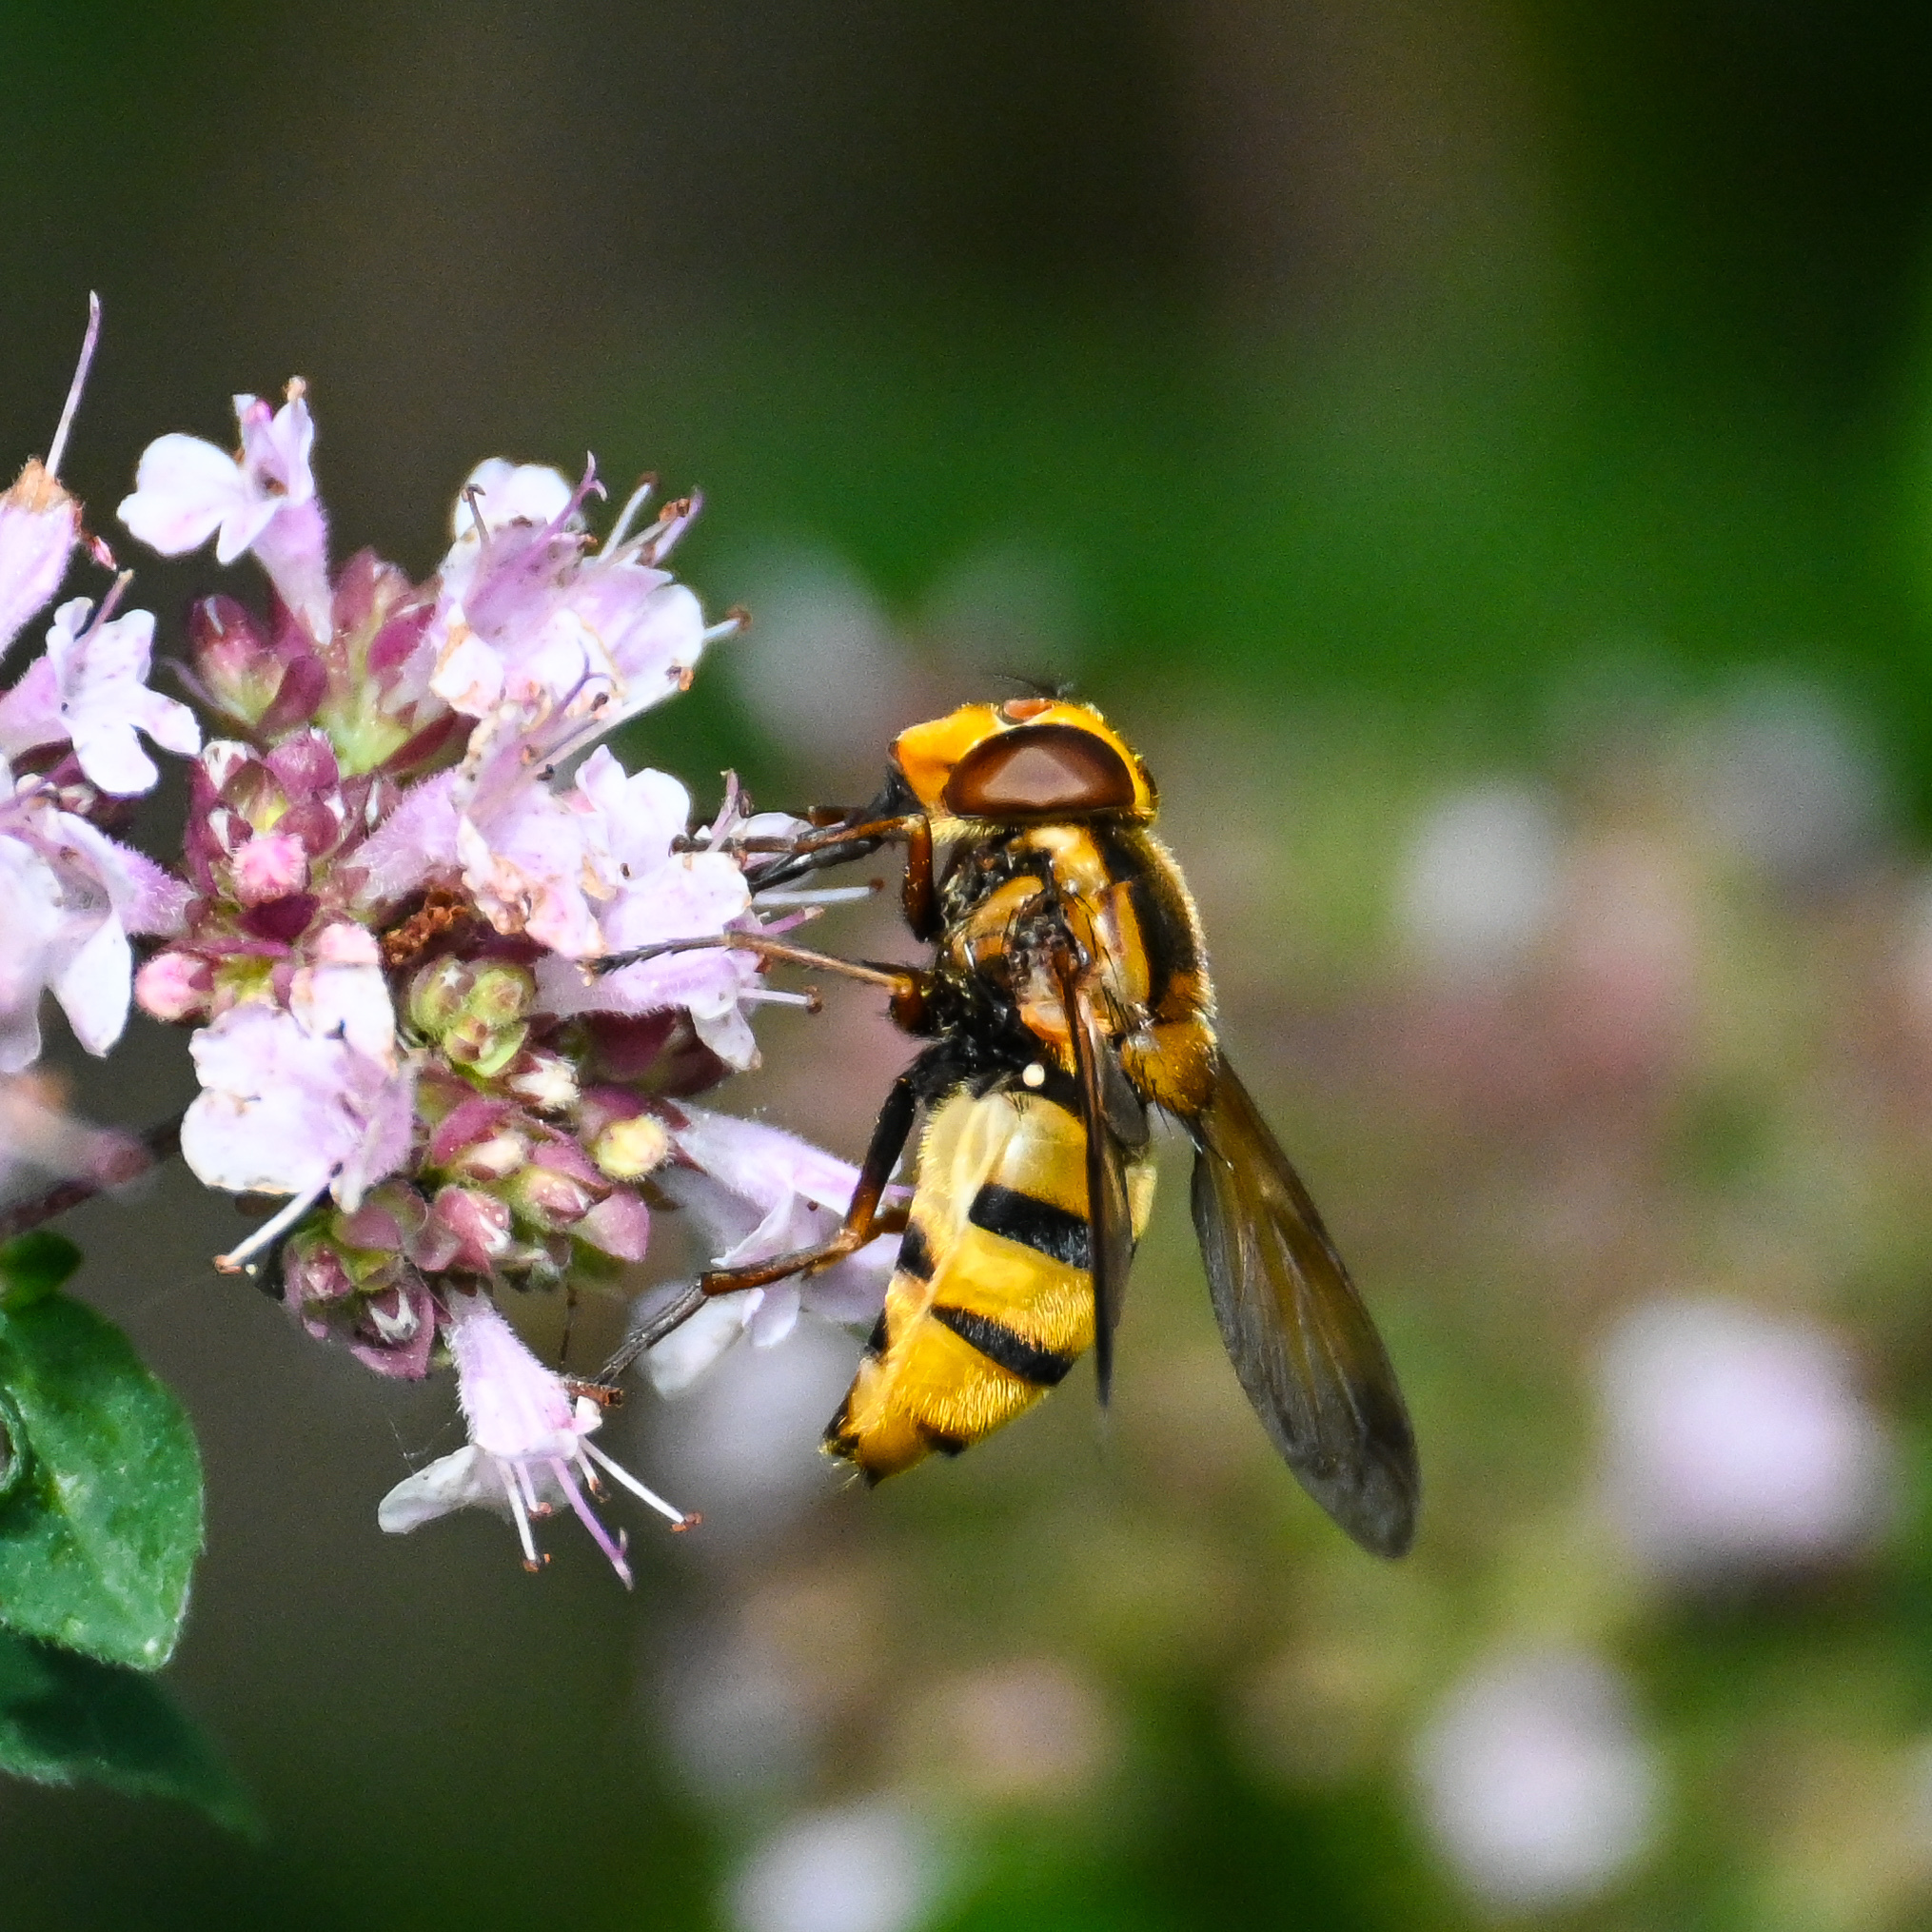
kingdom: Animalia
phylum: Arthropoda
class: Insecta
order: Diptera
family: Syrphidae
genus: Volucella
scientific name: Volucella inanis
